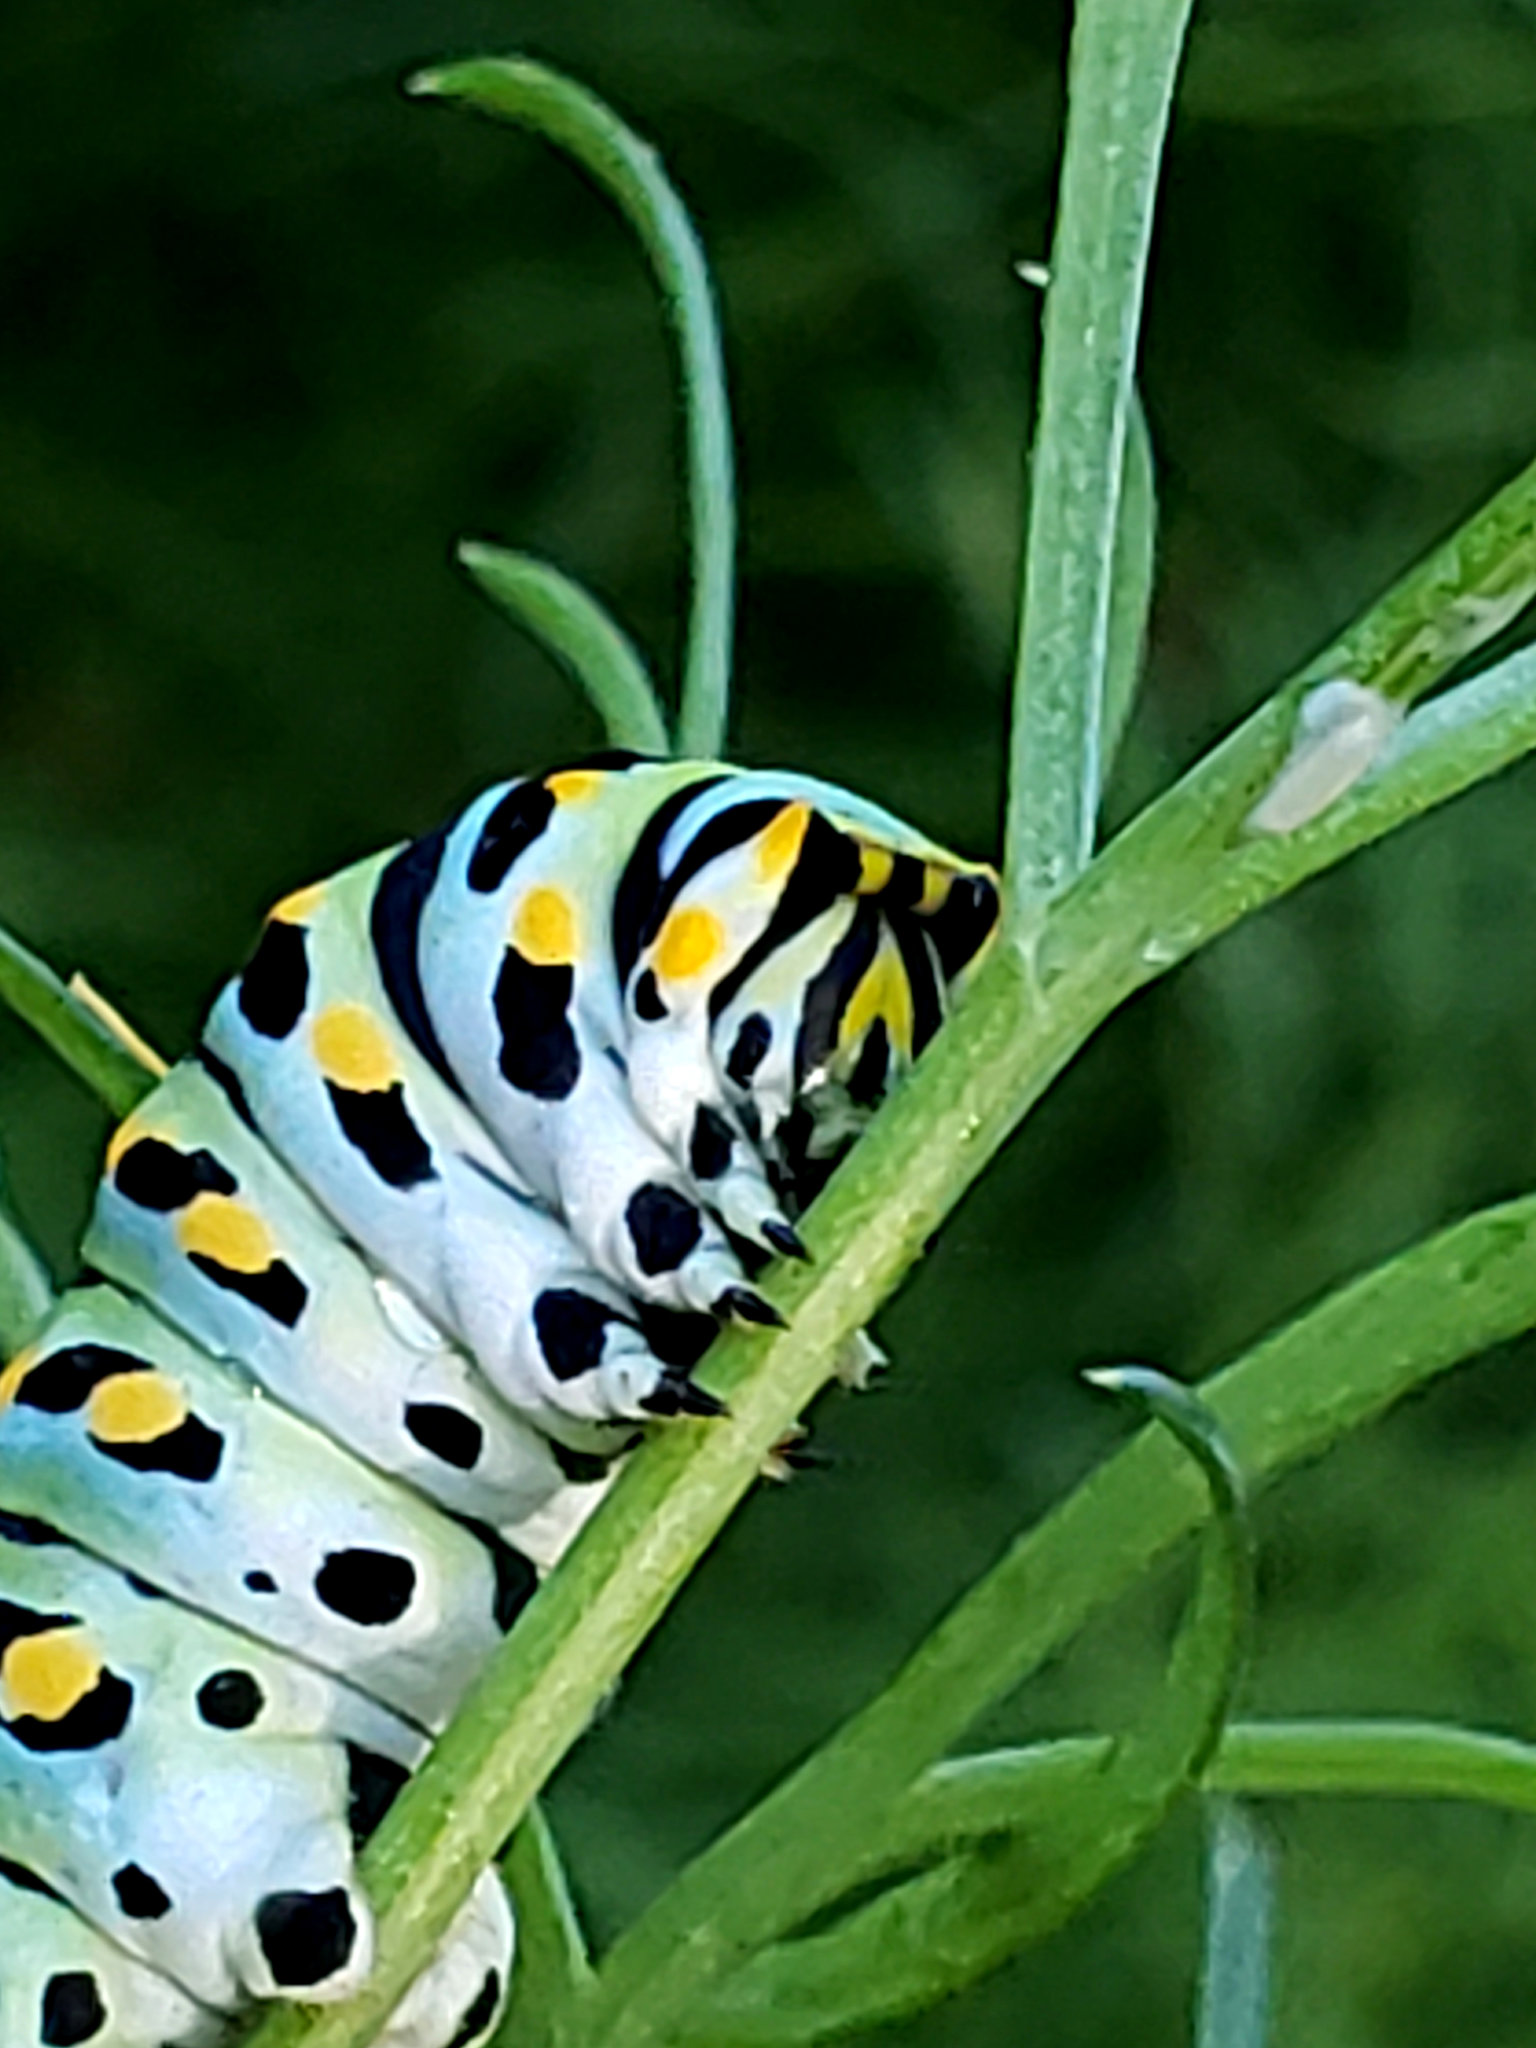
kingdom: Animalia
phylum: Arthropoda
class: Insecta
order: Lepidoptera
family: Papilionidae
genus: Papilio
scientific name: Papilio zelicaon
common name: Anise swallowtail
